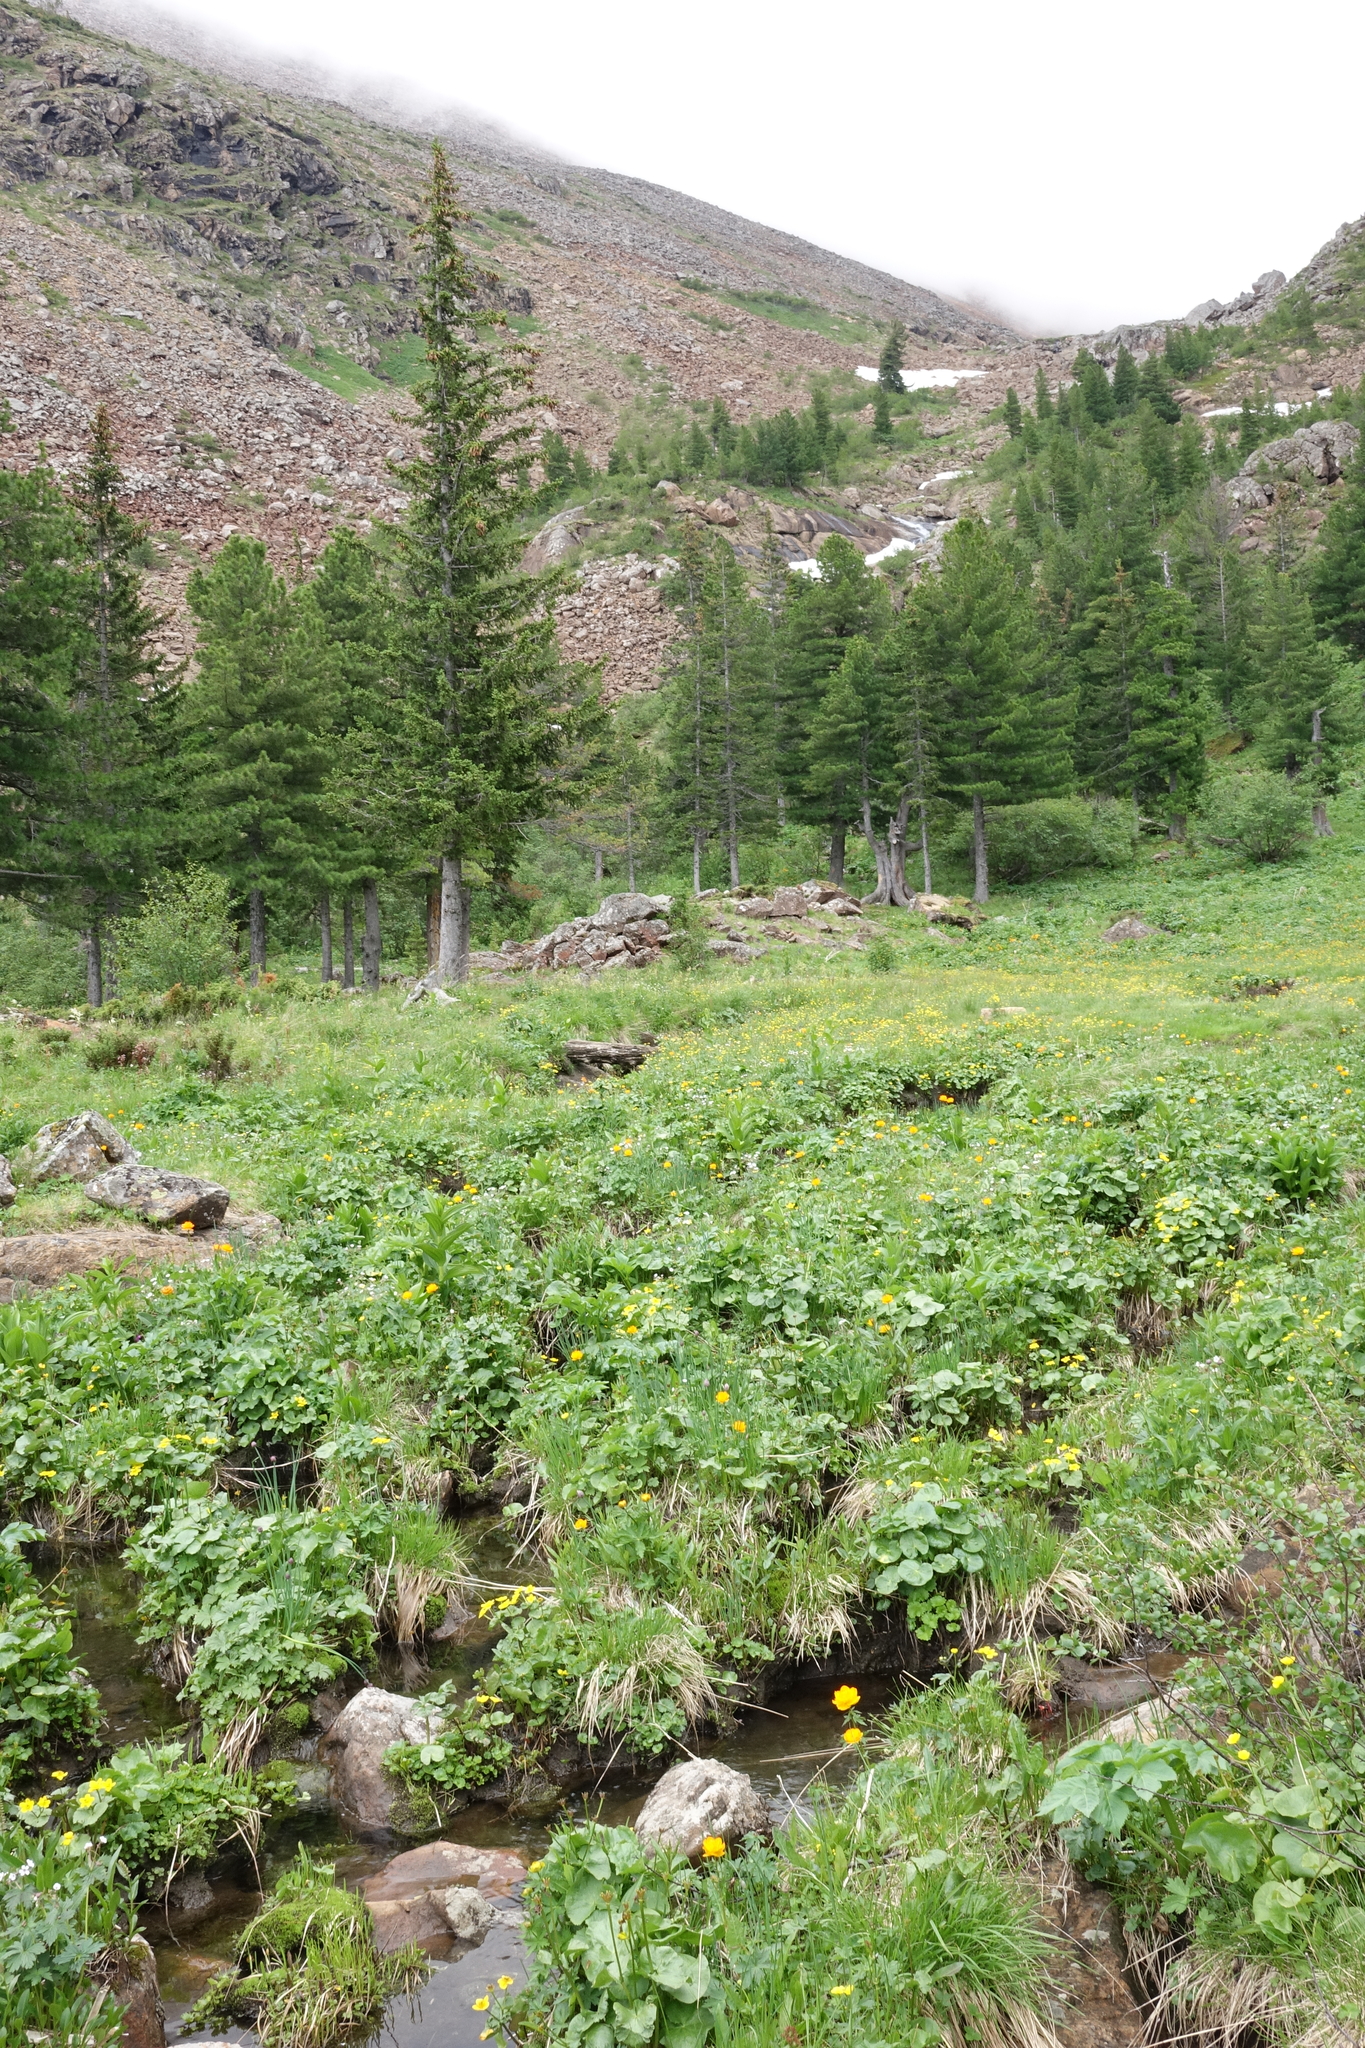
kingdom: Plantae
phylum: Tracheophyta
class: Pinopsida
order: Pinales
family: Pinaceae
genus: Pinus
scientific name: Pinus sibirica
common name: Siberian pine
